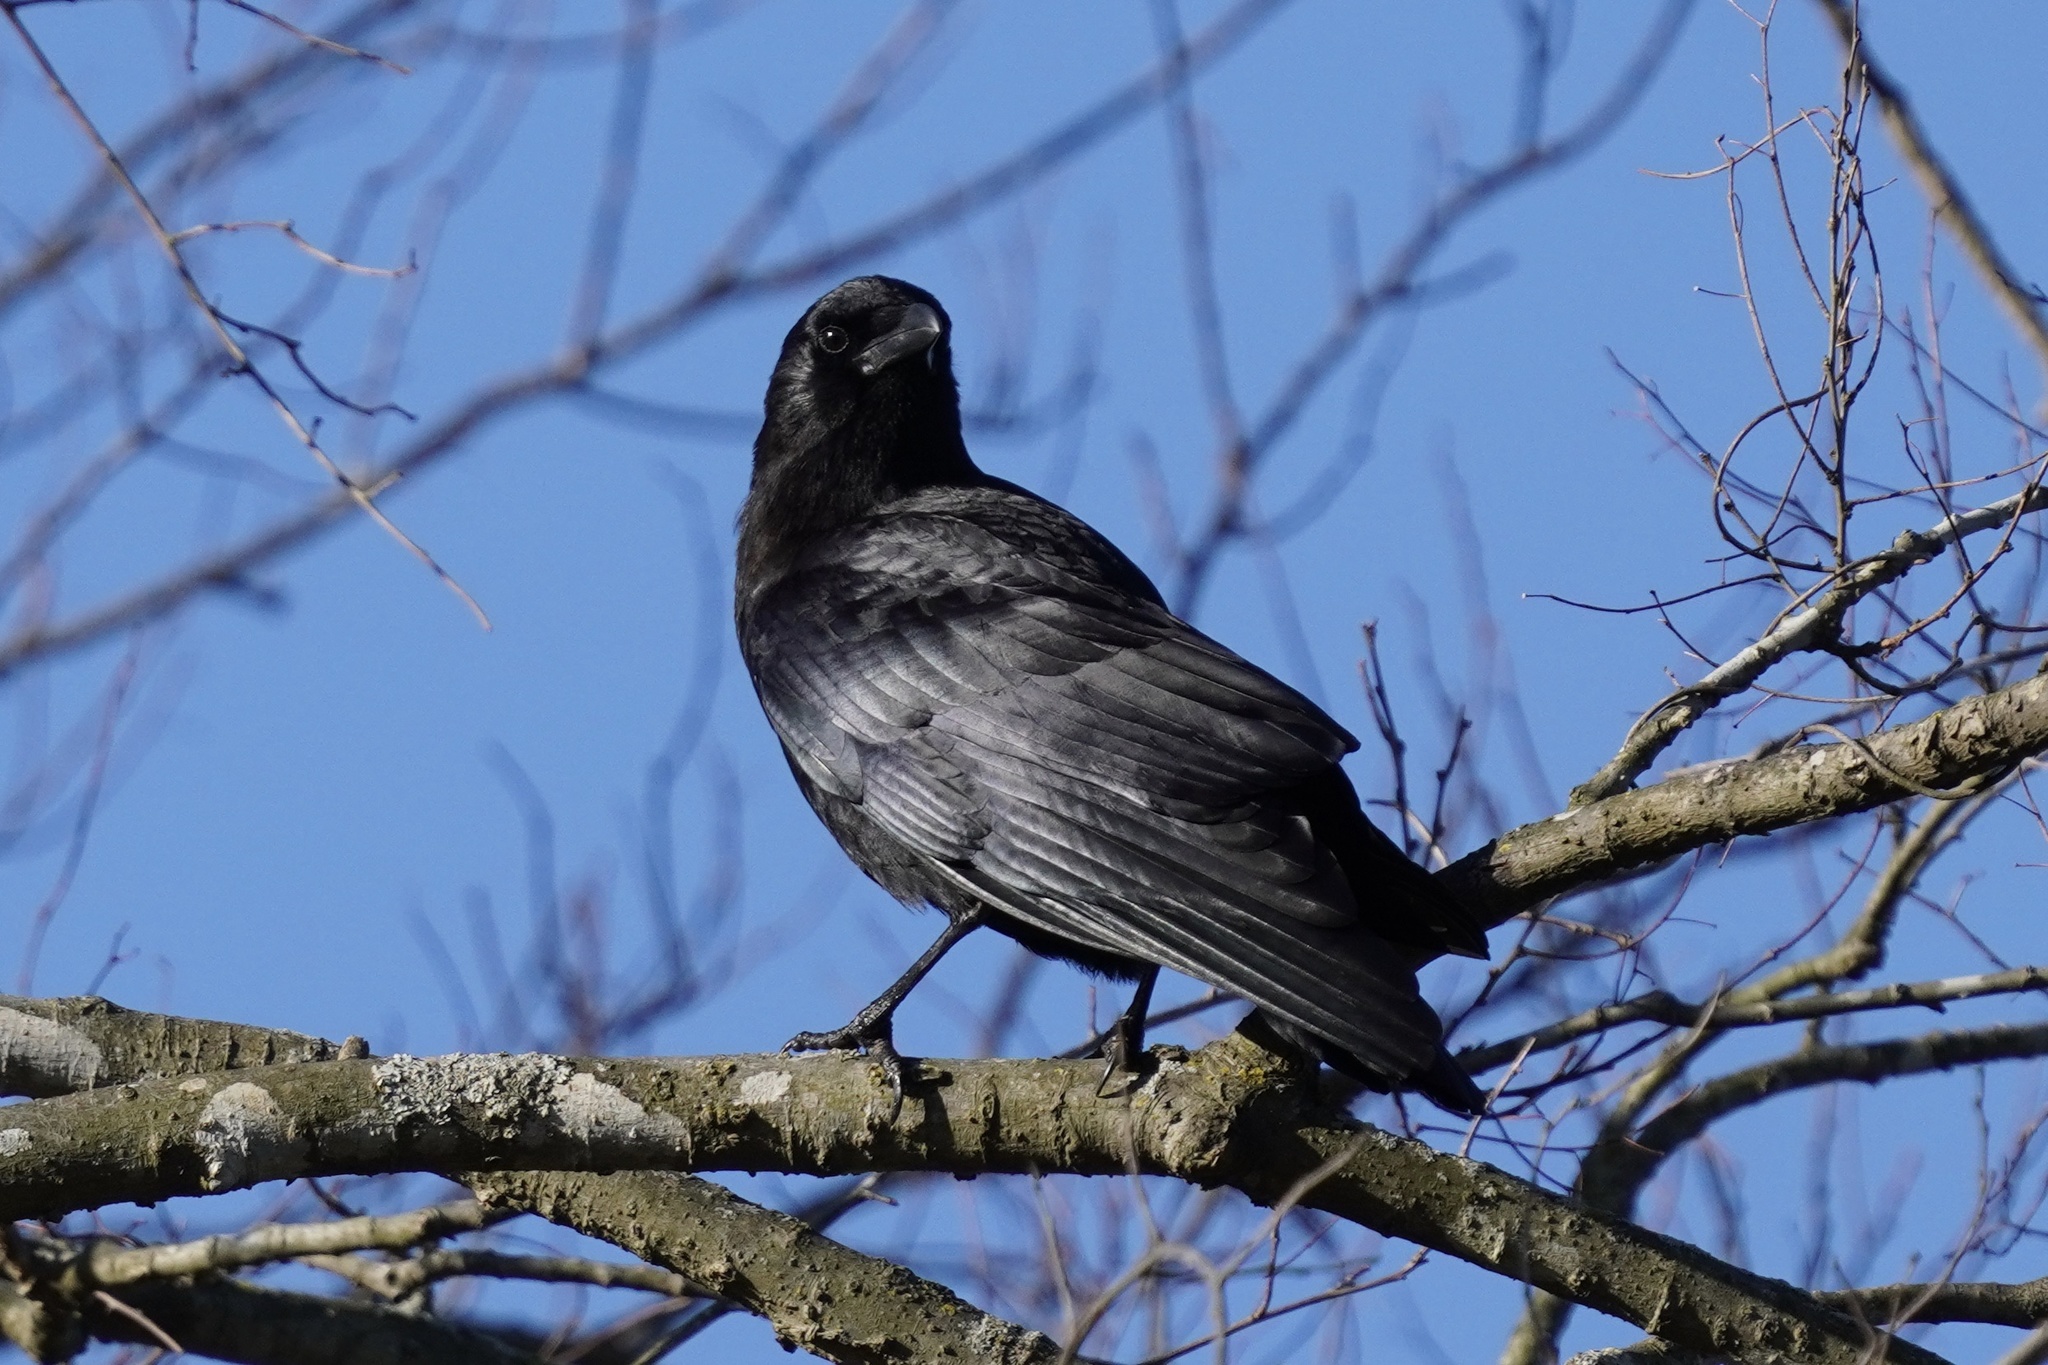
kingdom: Animalia
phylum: Chordata
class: Aves
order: Passeriformes
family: Corvidae
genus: Corvus
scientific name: Corvus brachyrhynchos
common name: American crow
